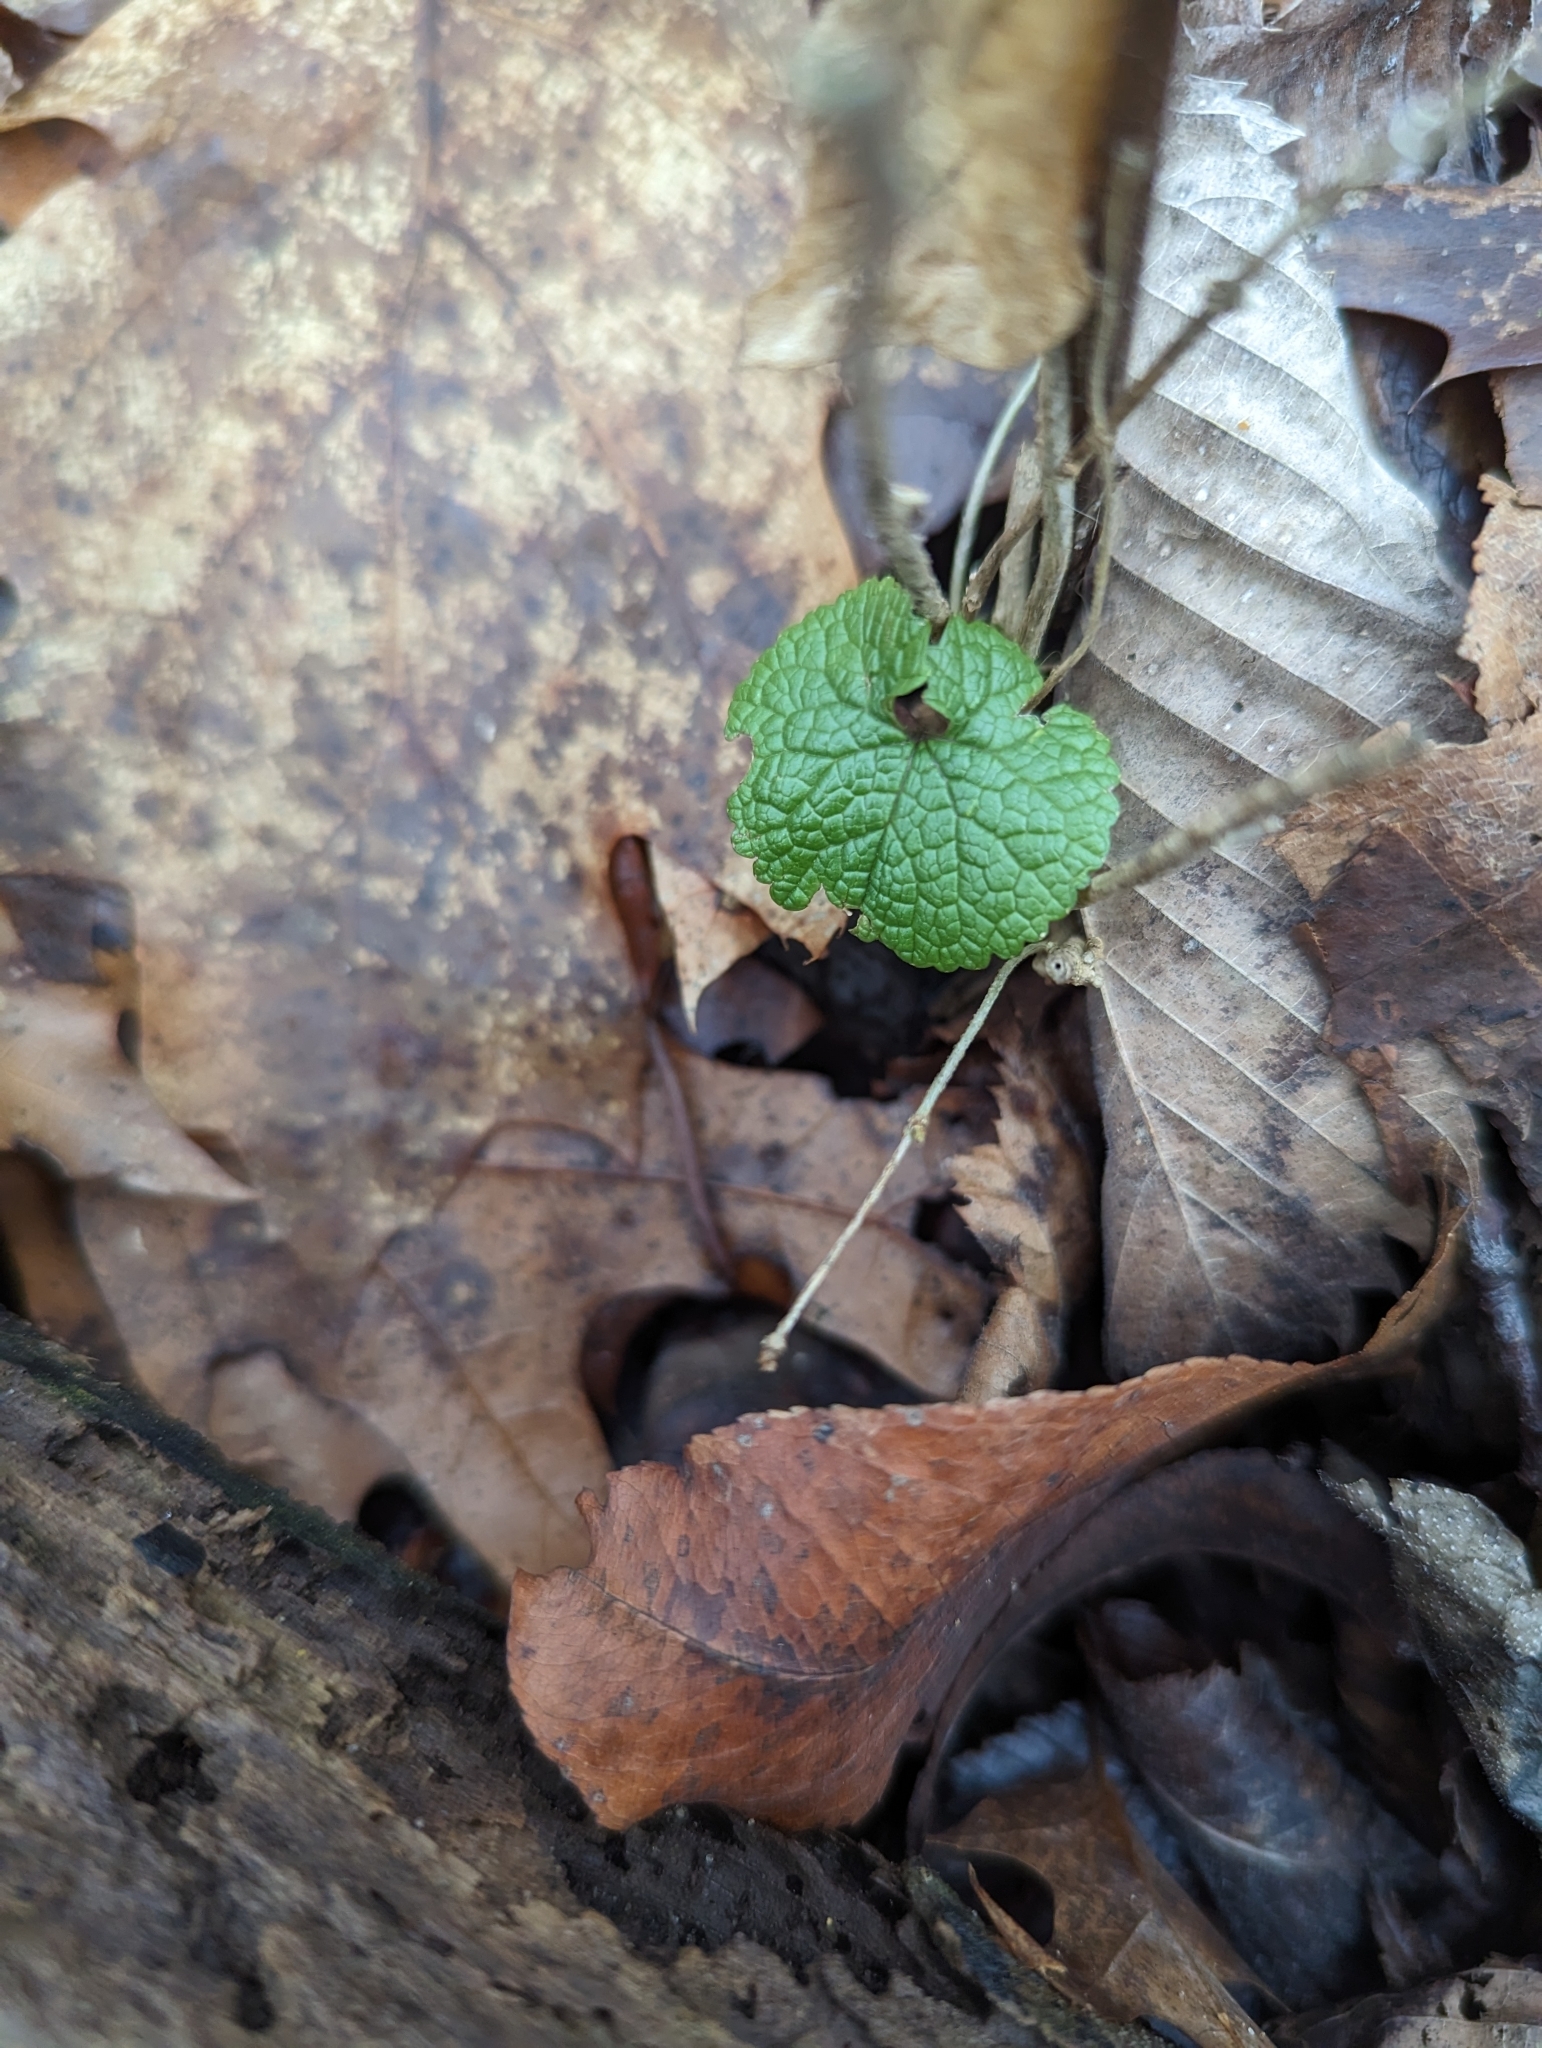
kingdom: Plantae
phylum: Tracheophyta
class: Magnoliopsida
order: Brassicales
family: Brassicaceae
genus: Alliaria
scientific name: Alliaria petiolata
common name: Garlic mustard
